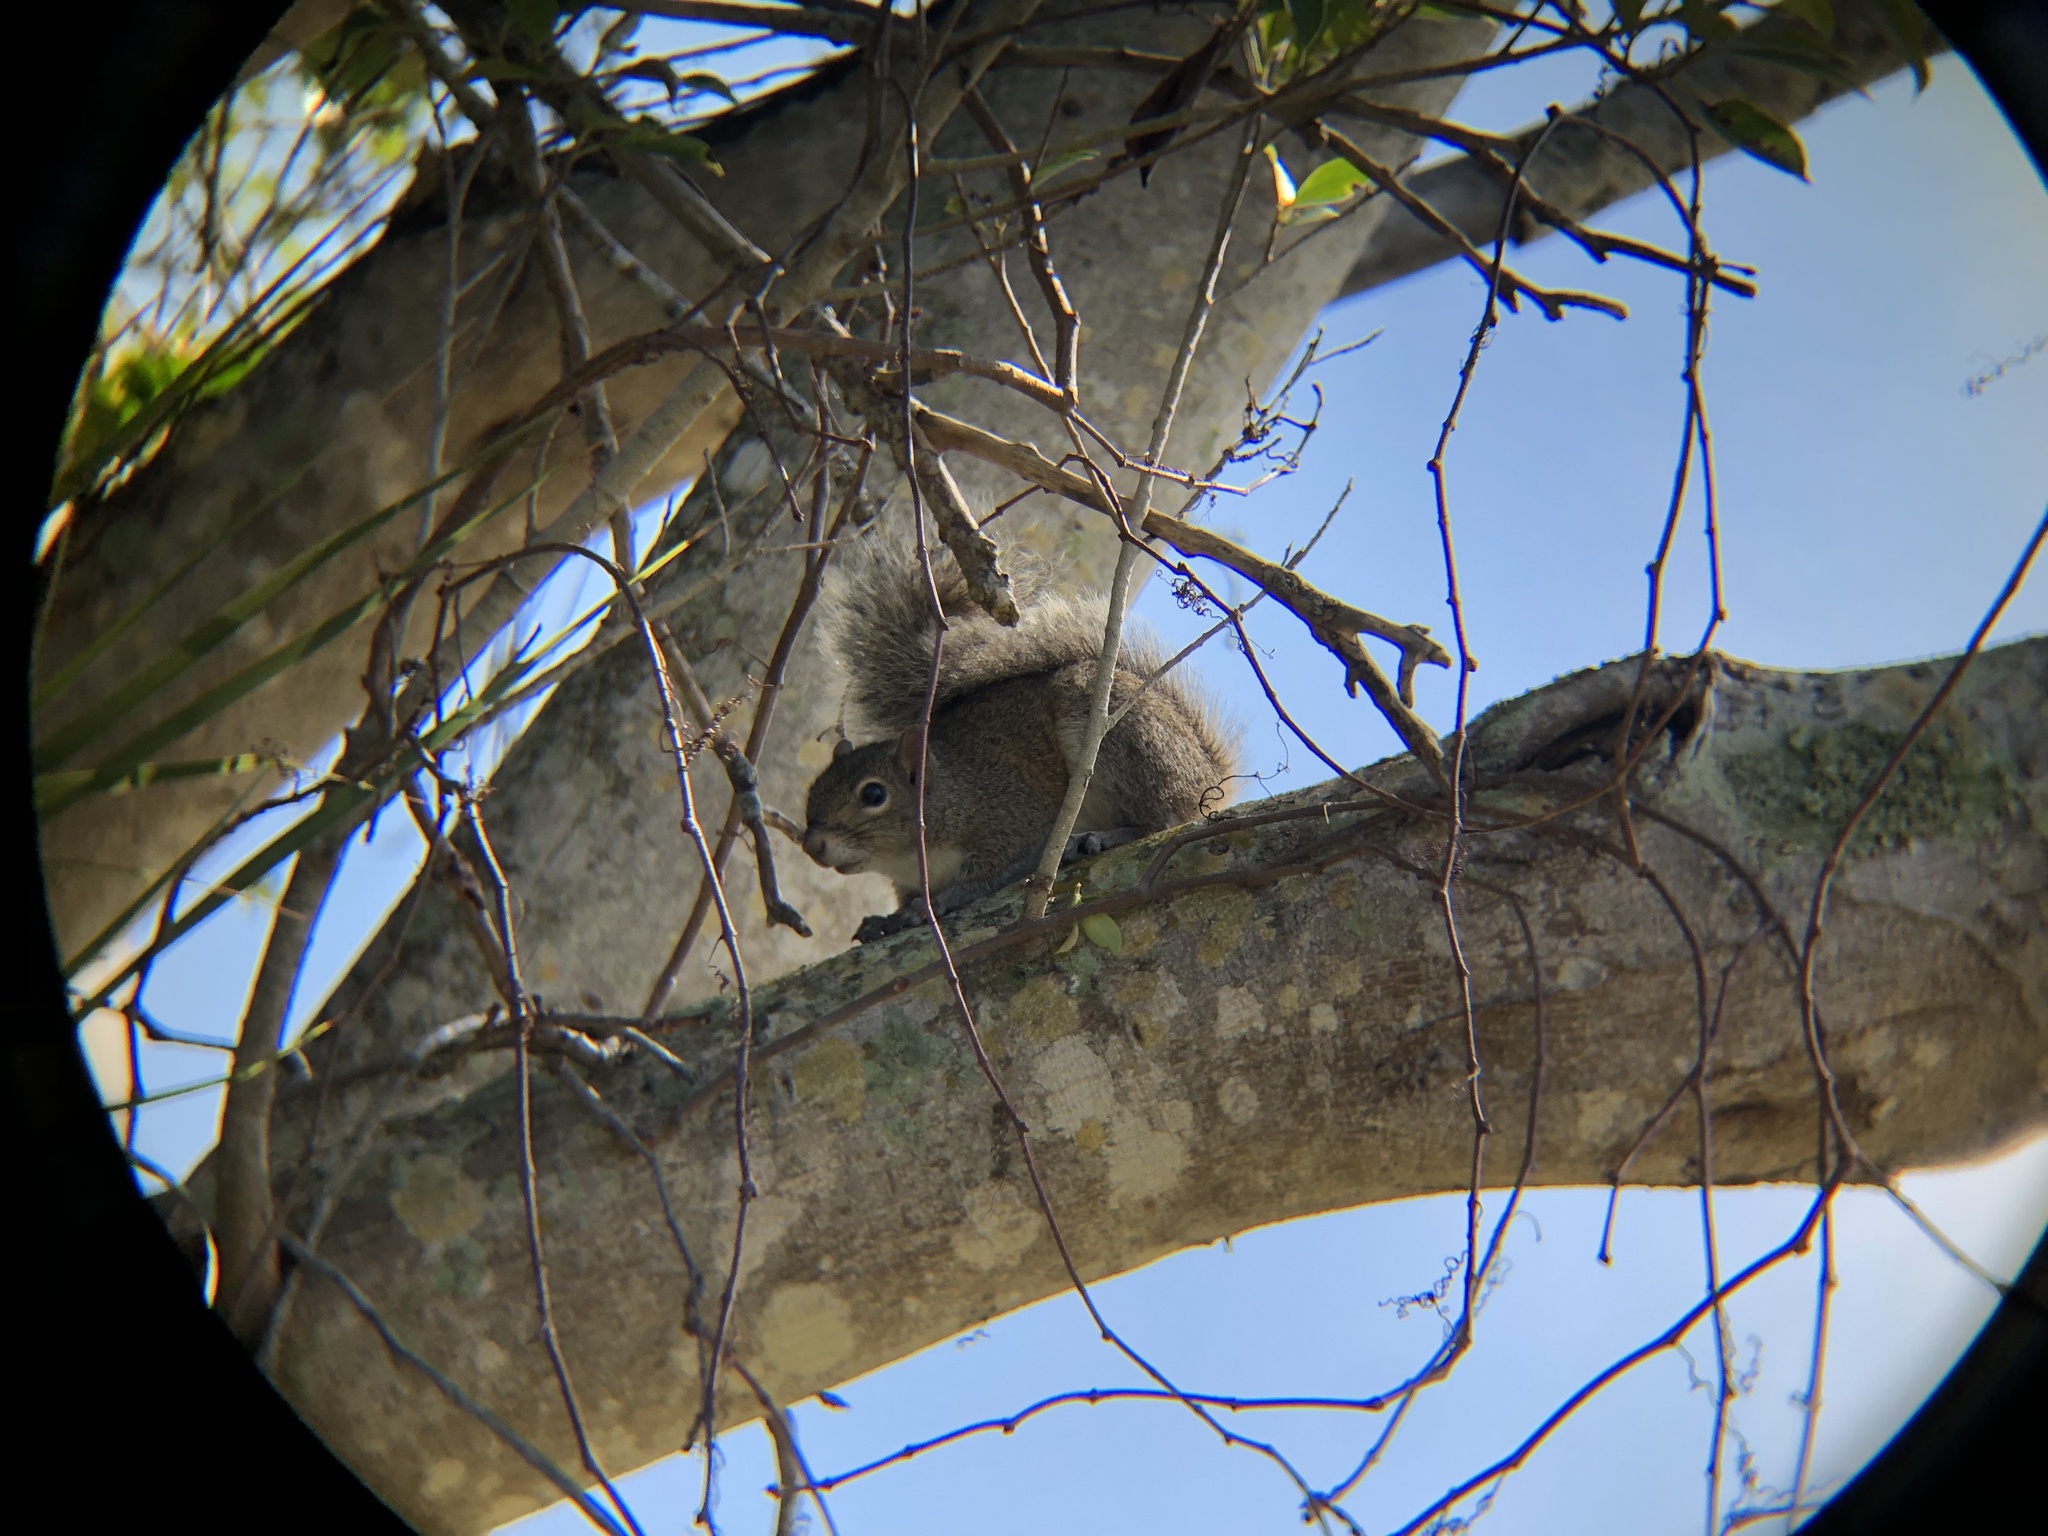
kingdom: Animalia
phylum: Chordata
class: Mammalia
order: Rodentia
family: Sciuridae
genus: Sciurus
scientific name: Sciurus carolinensis
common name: Eastern gray squirrel
